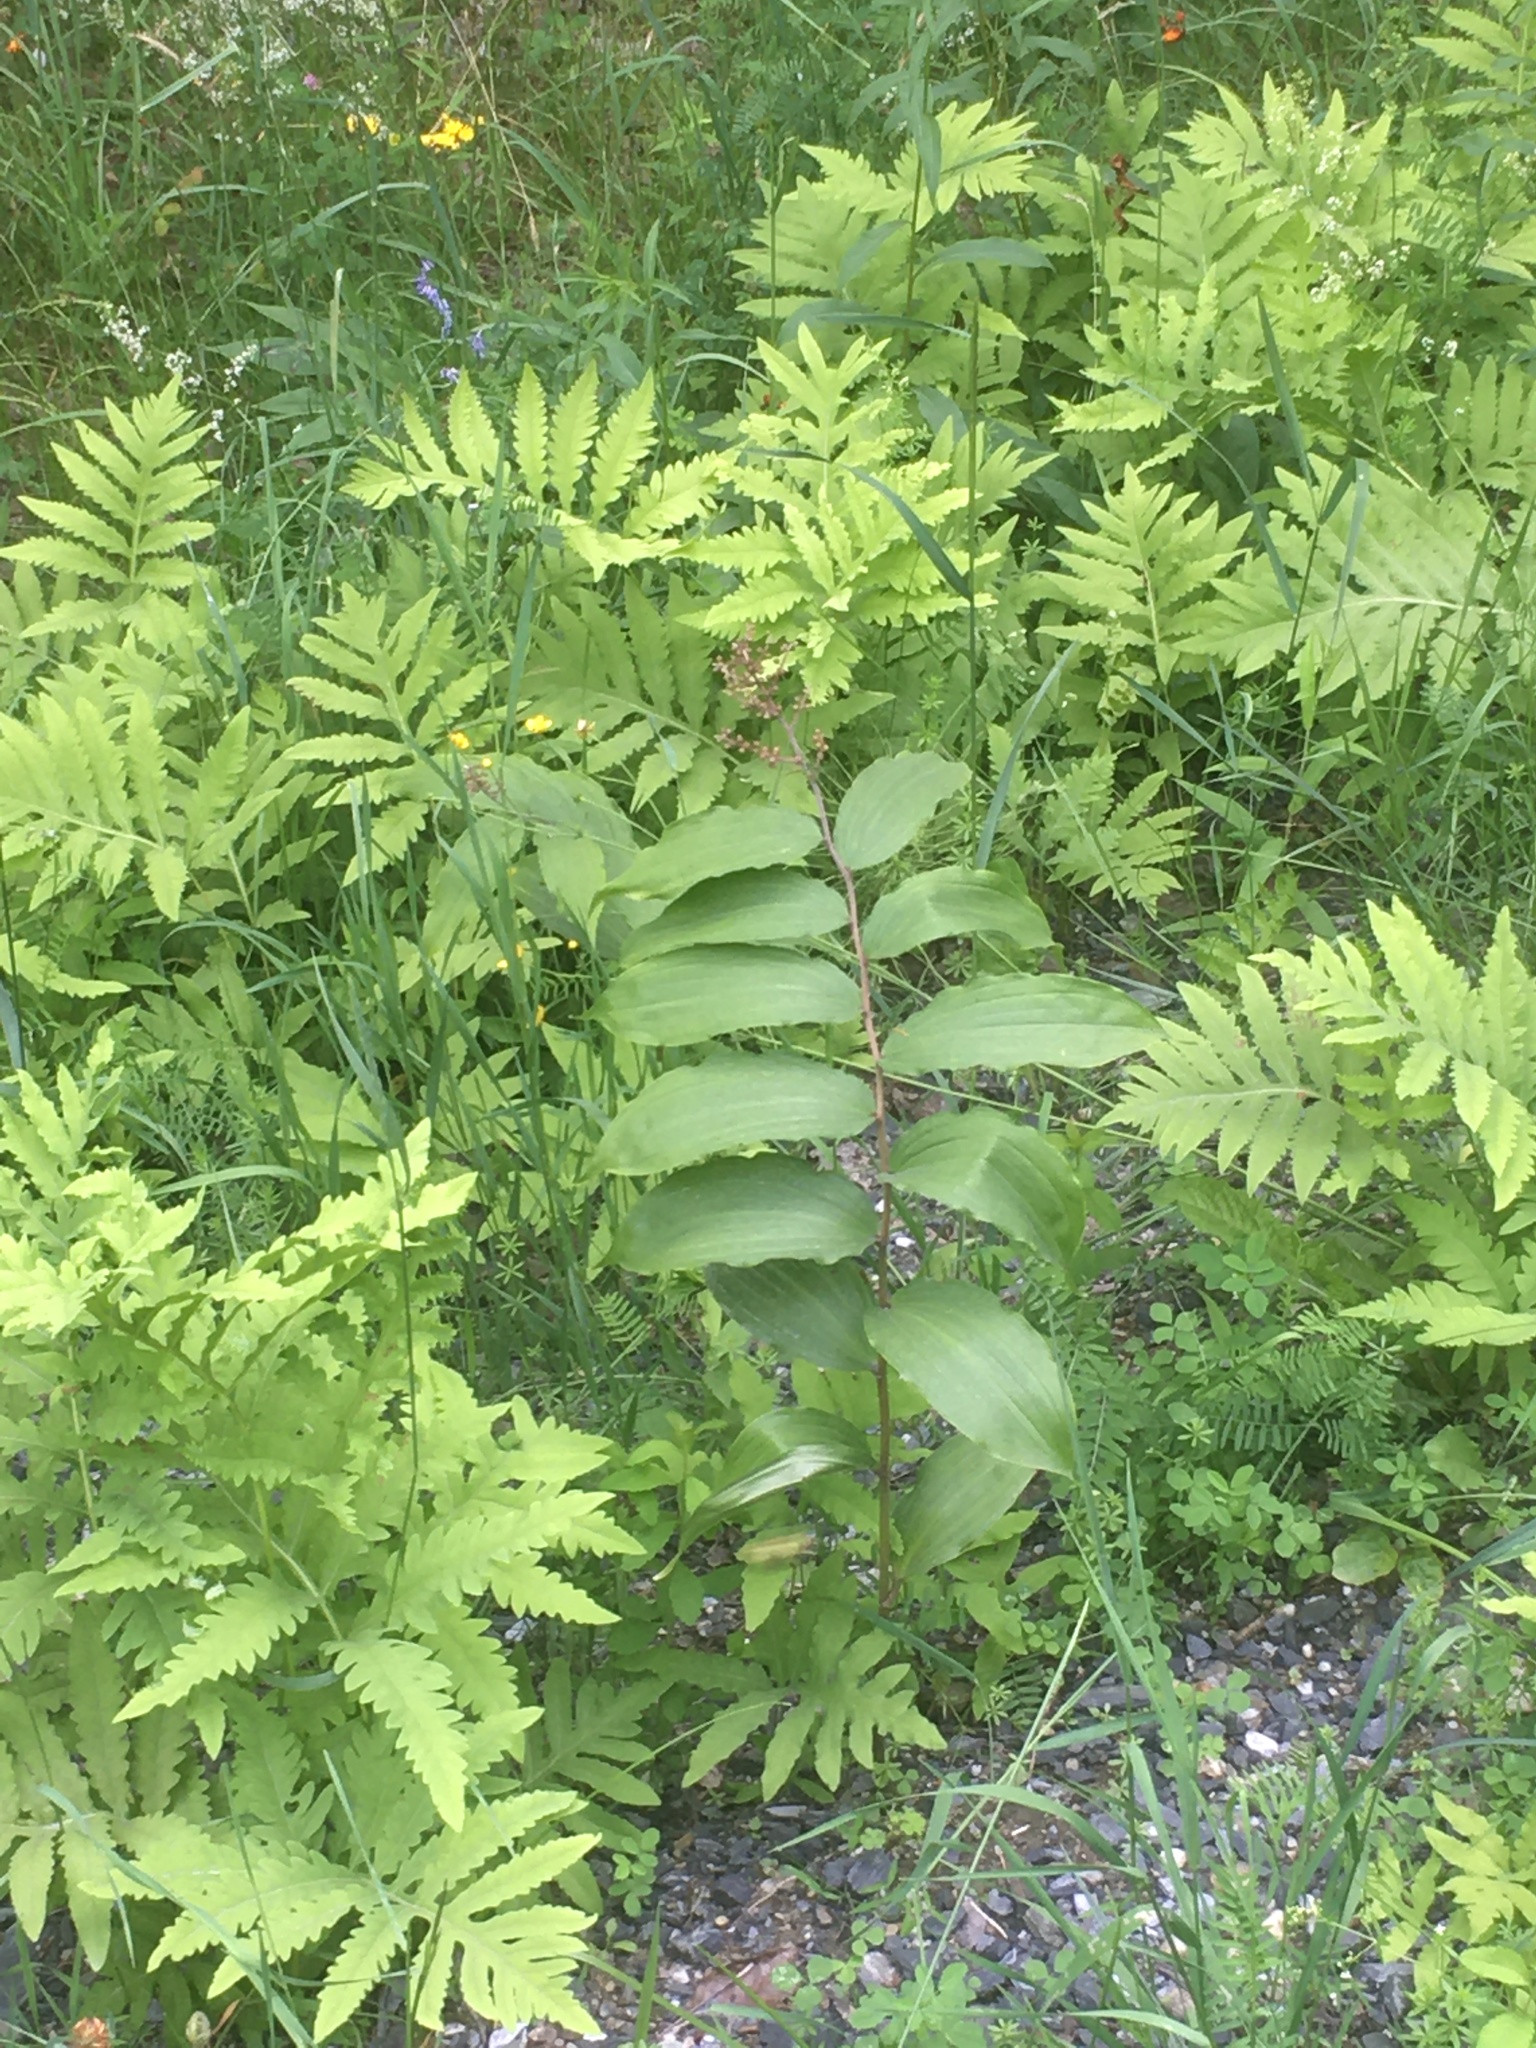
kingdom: Plantae
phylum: Tracheophyta
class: Liliopsida
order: Asparagales
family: Asparagaceae
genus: Maianthemum
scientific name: Maianthemum racemosum
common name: False spikenard
